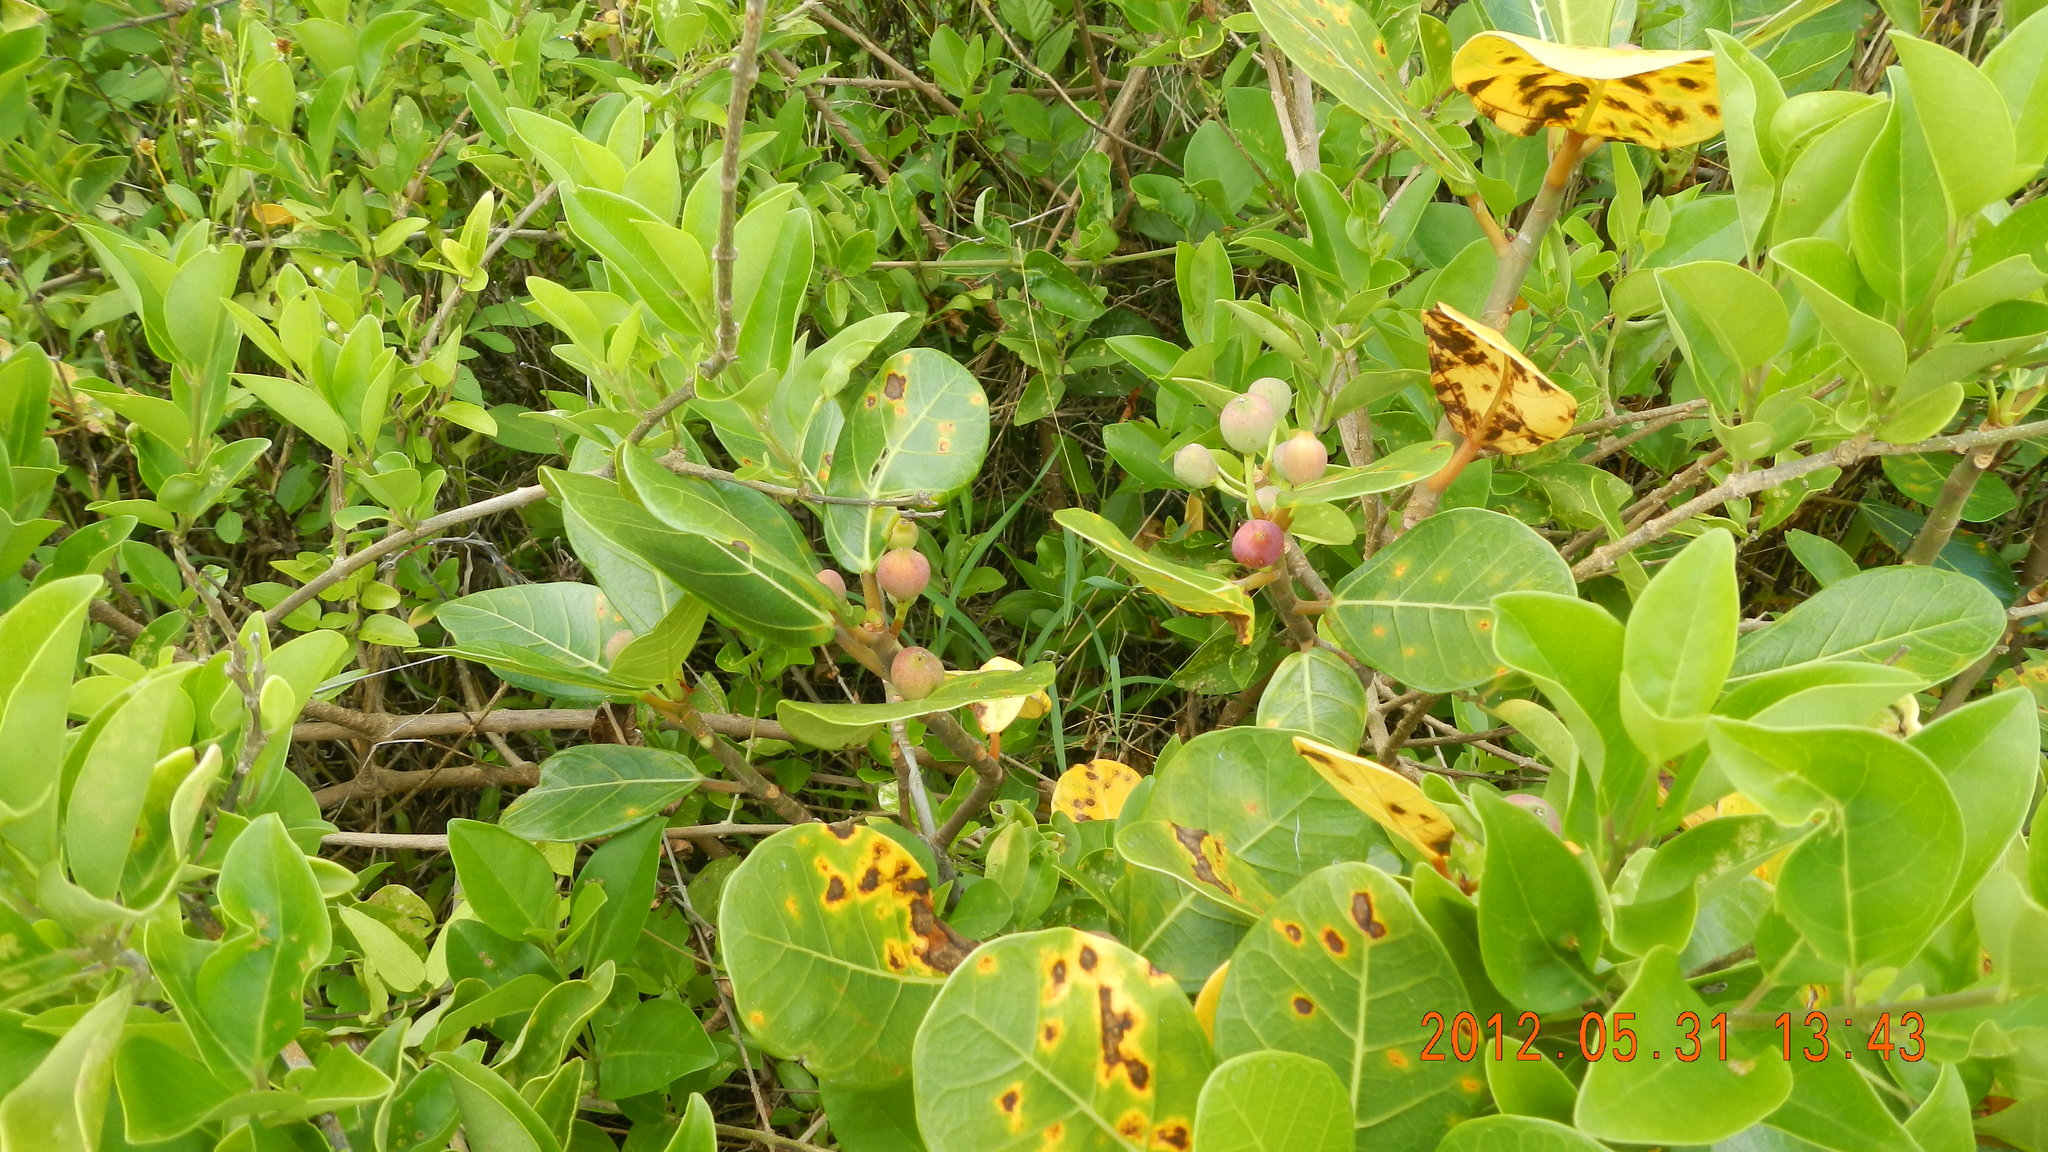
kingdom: Plantae
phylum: Tracheophyta
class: Magnoliopsida
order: Rosales
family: Moraceae
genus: Ficus
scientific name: Ficus pedunculosa
